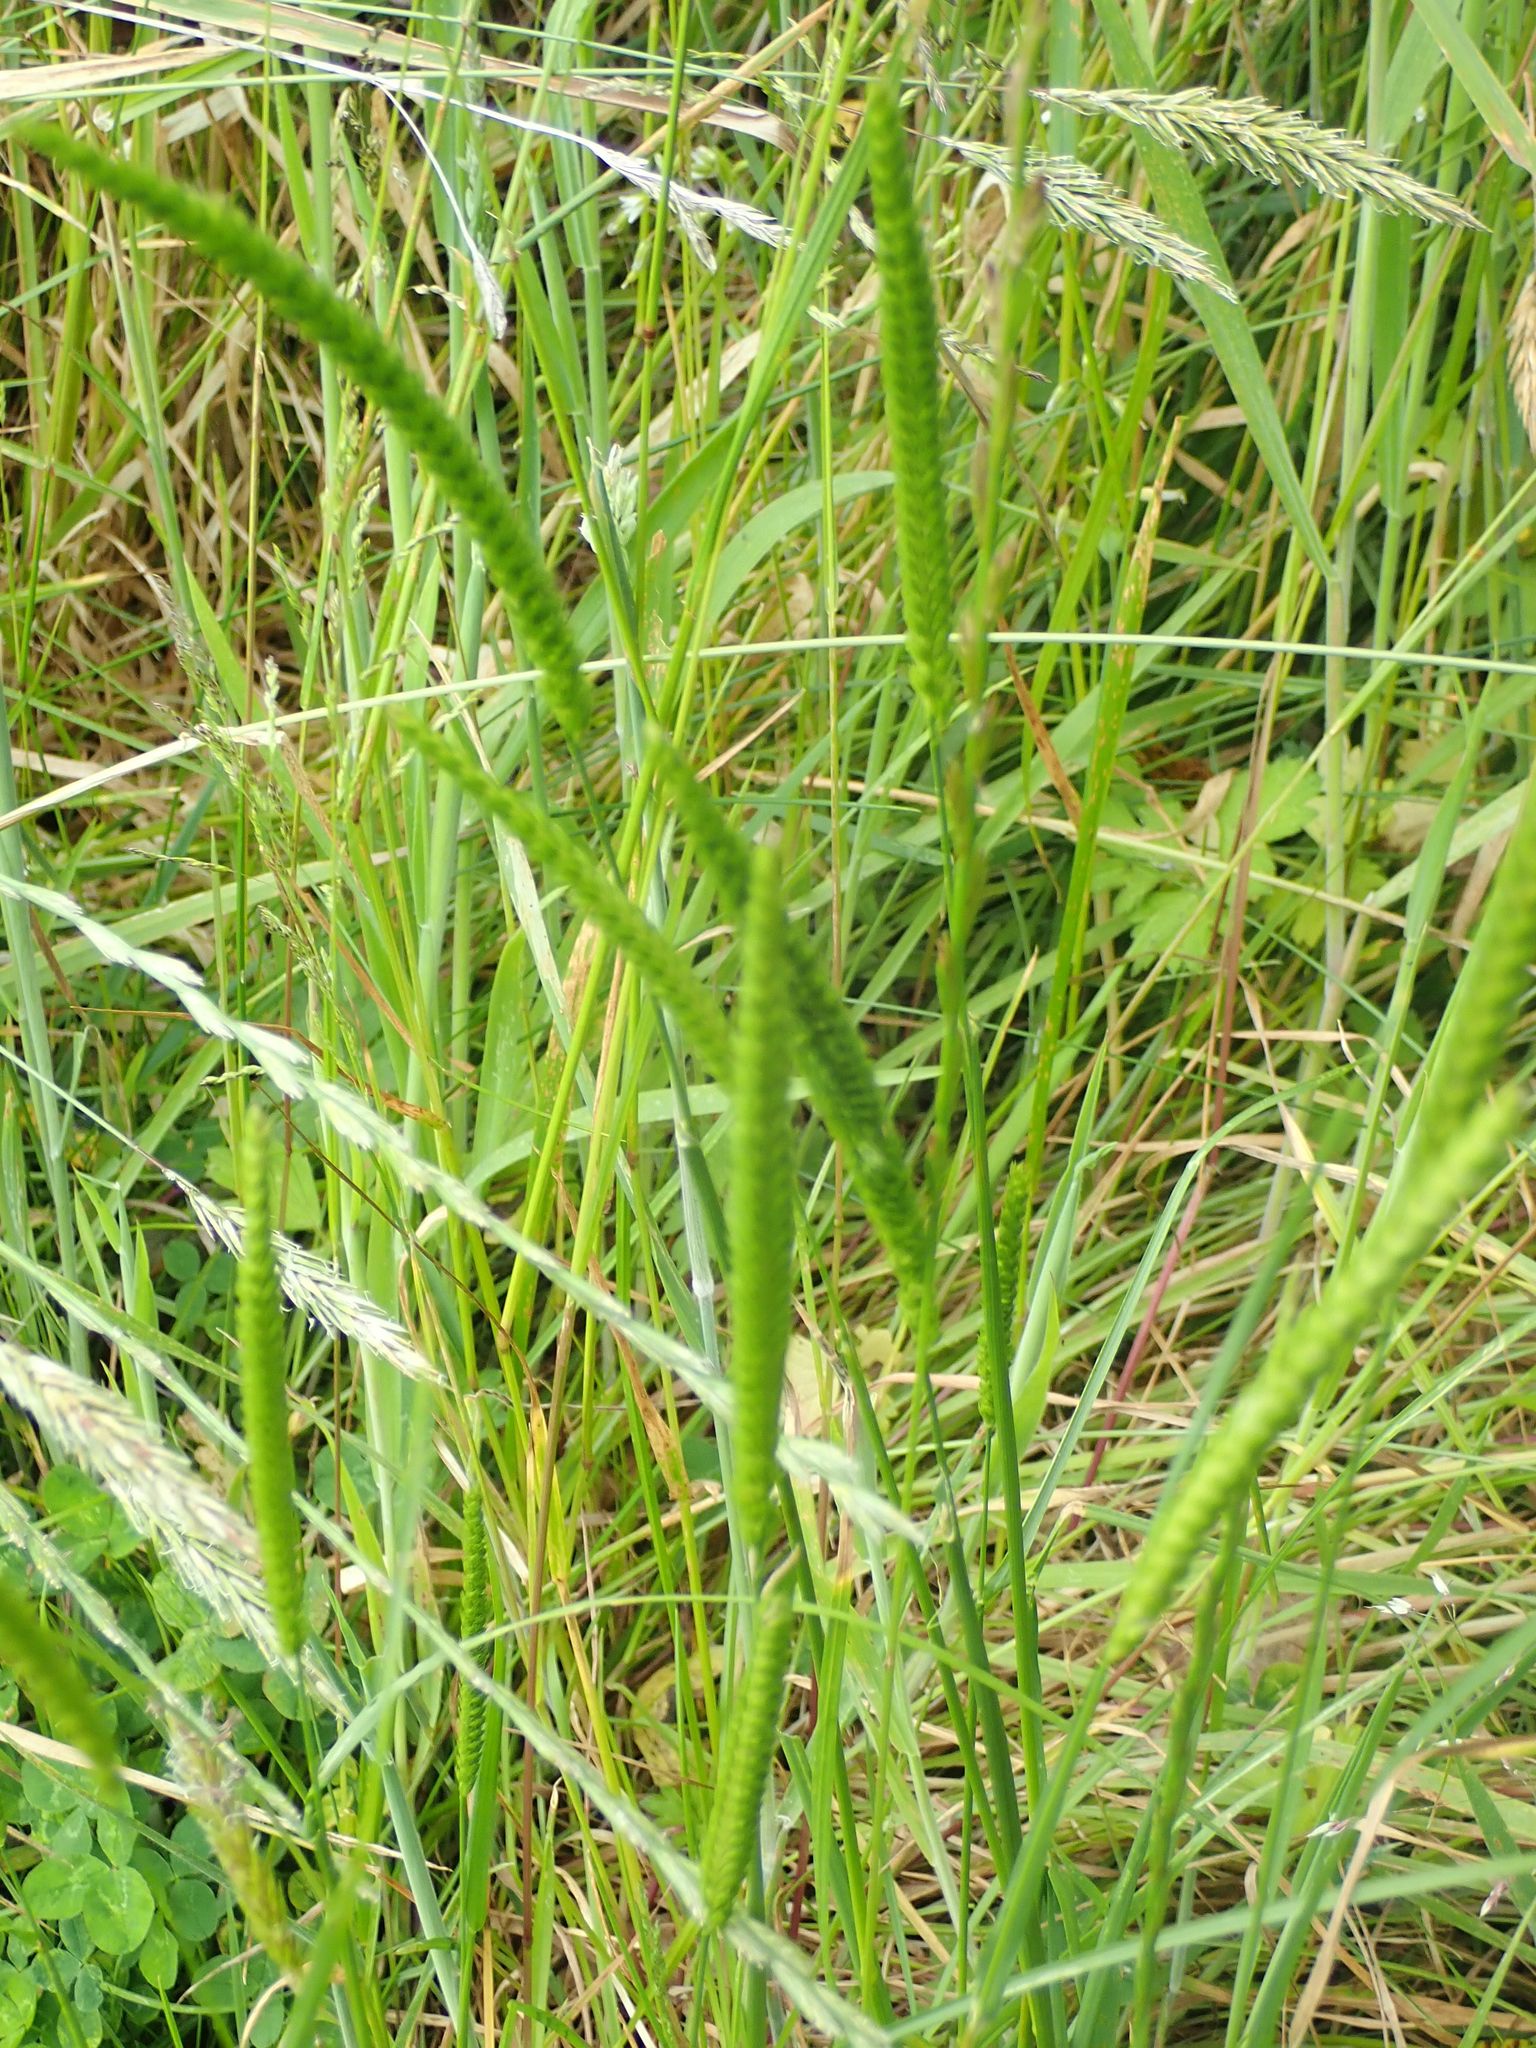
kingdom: Plantae
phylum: Tracheophyta
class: Liliopsida
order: Poales
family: Poaceae
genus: Cynosurus
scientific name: Cynosurus cristatus
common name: Crested dog's-tail
